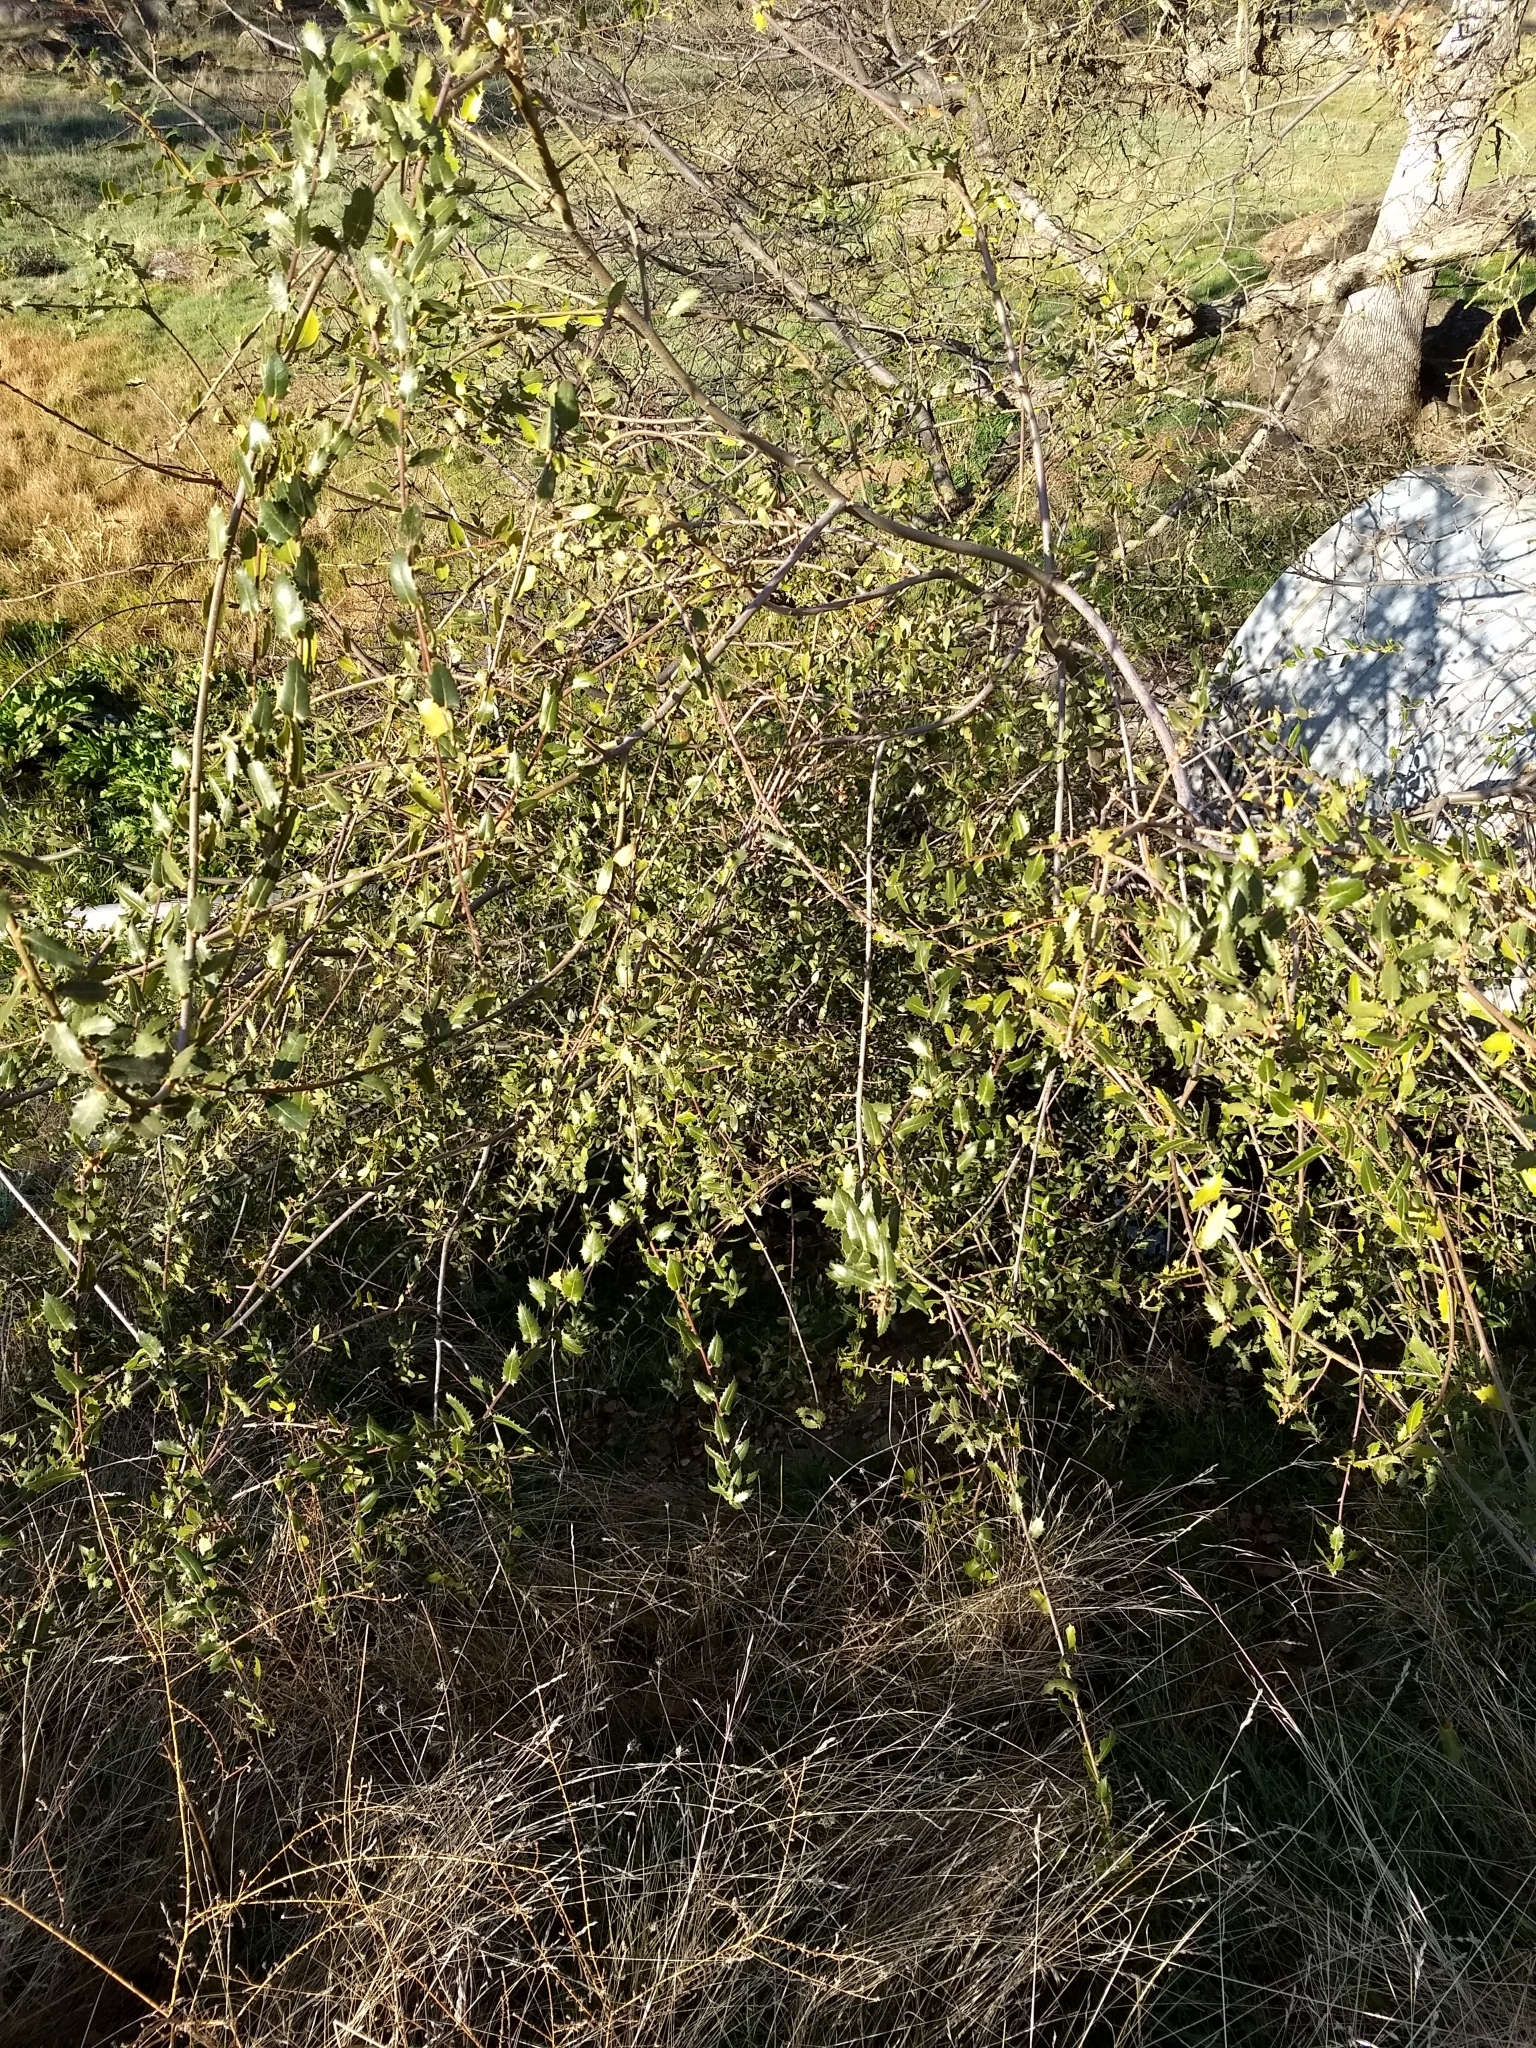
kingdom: Plantae
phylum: Tracheophyta
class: Magnoliopsida
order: Fagales
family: Fagaceae
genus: Quercus
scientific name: Quercus wislizeni
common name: Interior live oak
